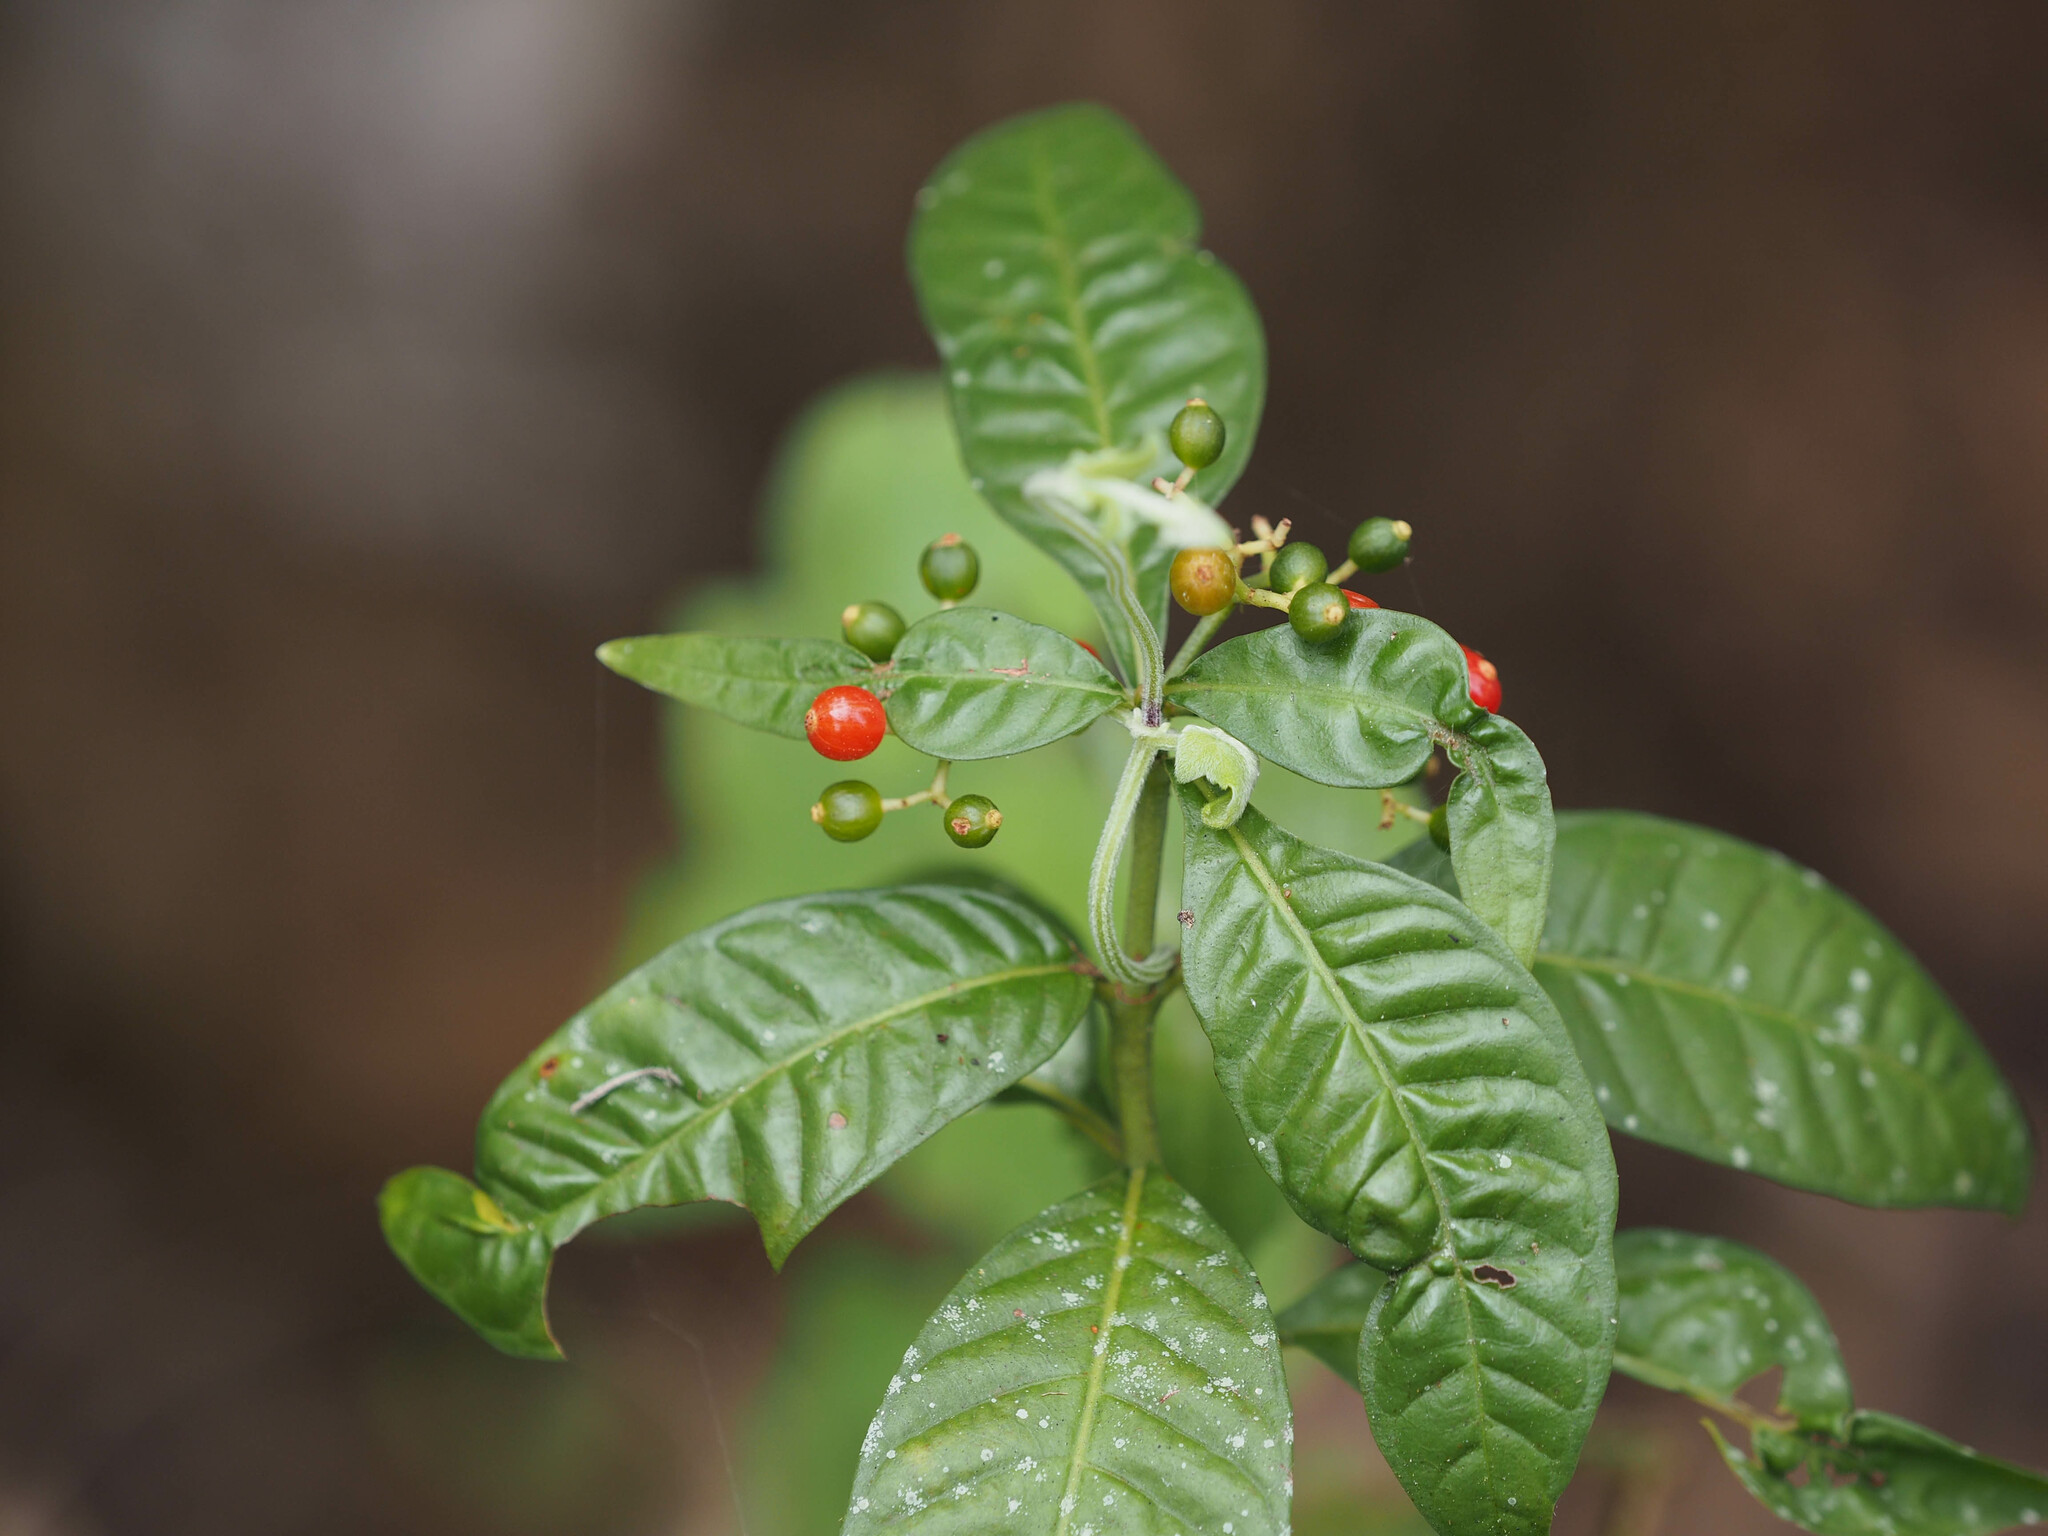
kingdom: Plantae
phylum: Tracheophyta
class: Magnoliopsida
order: Gentianales
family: Rubiaceae
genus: Psychotria
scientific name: Psychotria nervosa
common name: Bastard cankerberry
